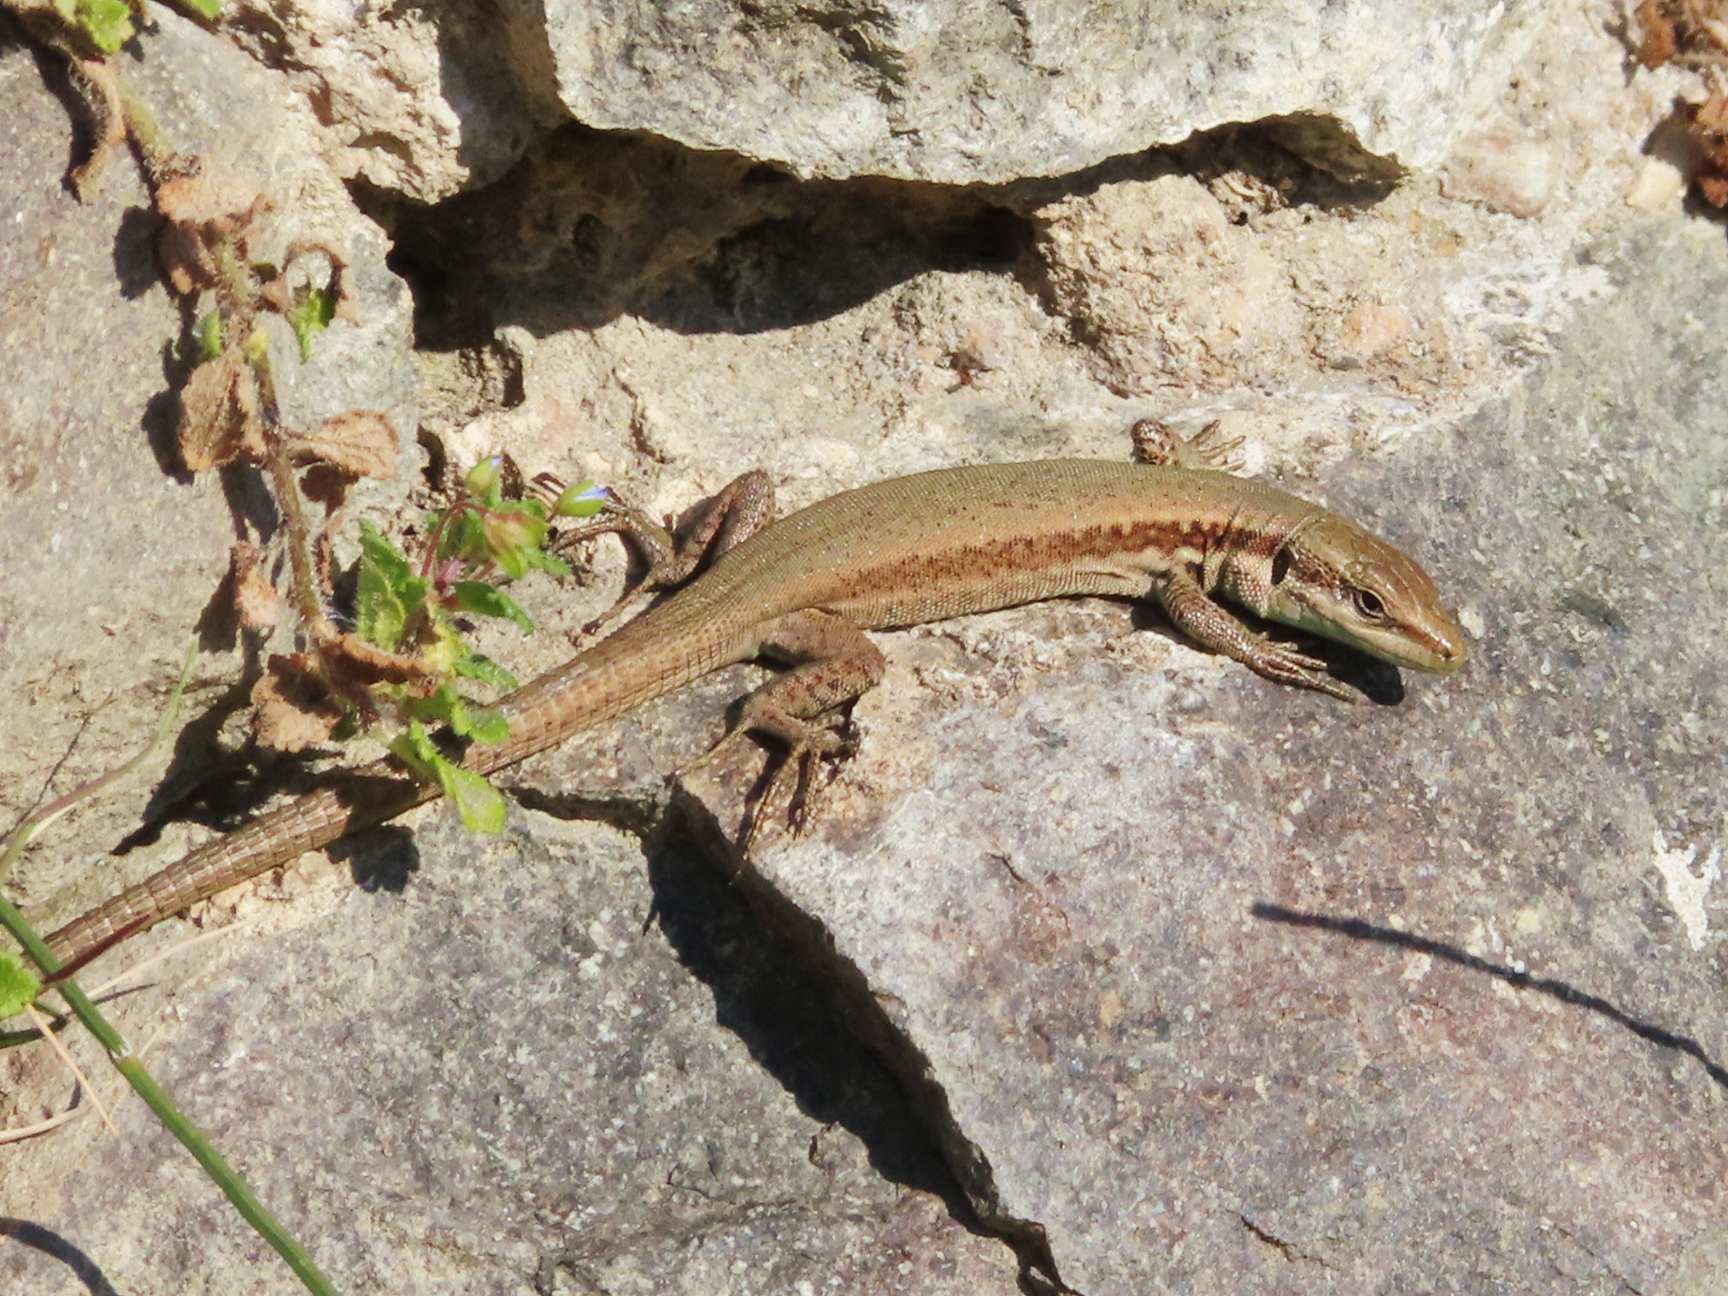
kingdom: Animalia
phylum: Chordata
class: Squamata
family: Lacertidae
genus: Phoenicolacerta
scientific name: Phoenicolacerta laevis
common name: Lebanon lizard
